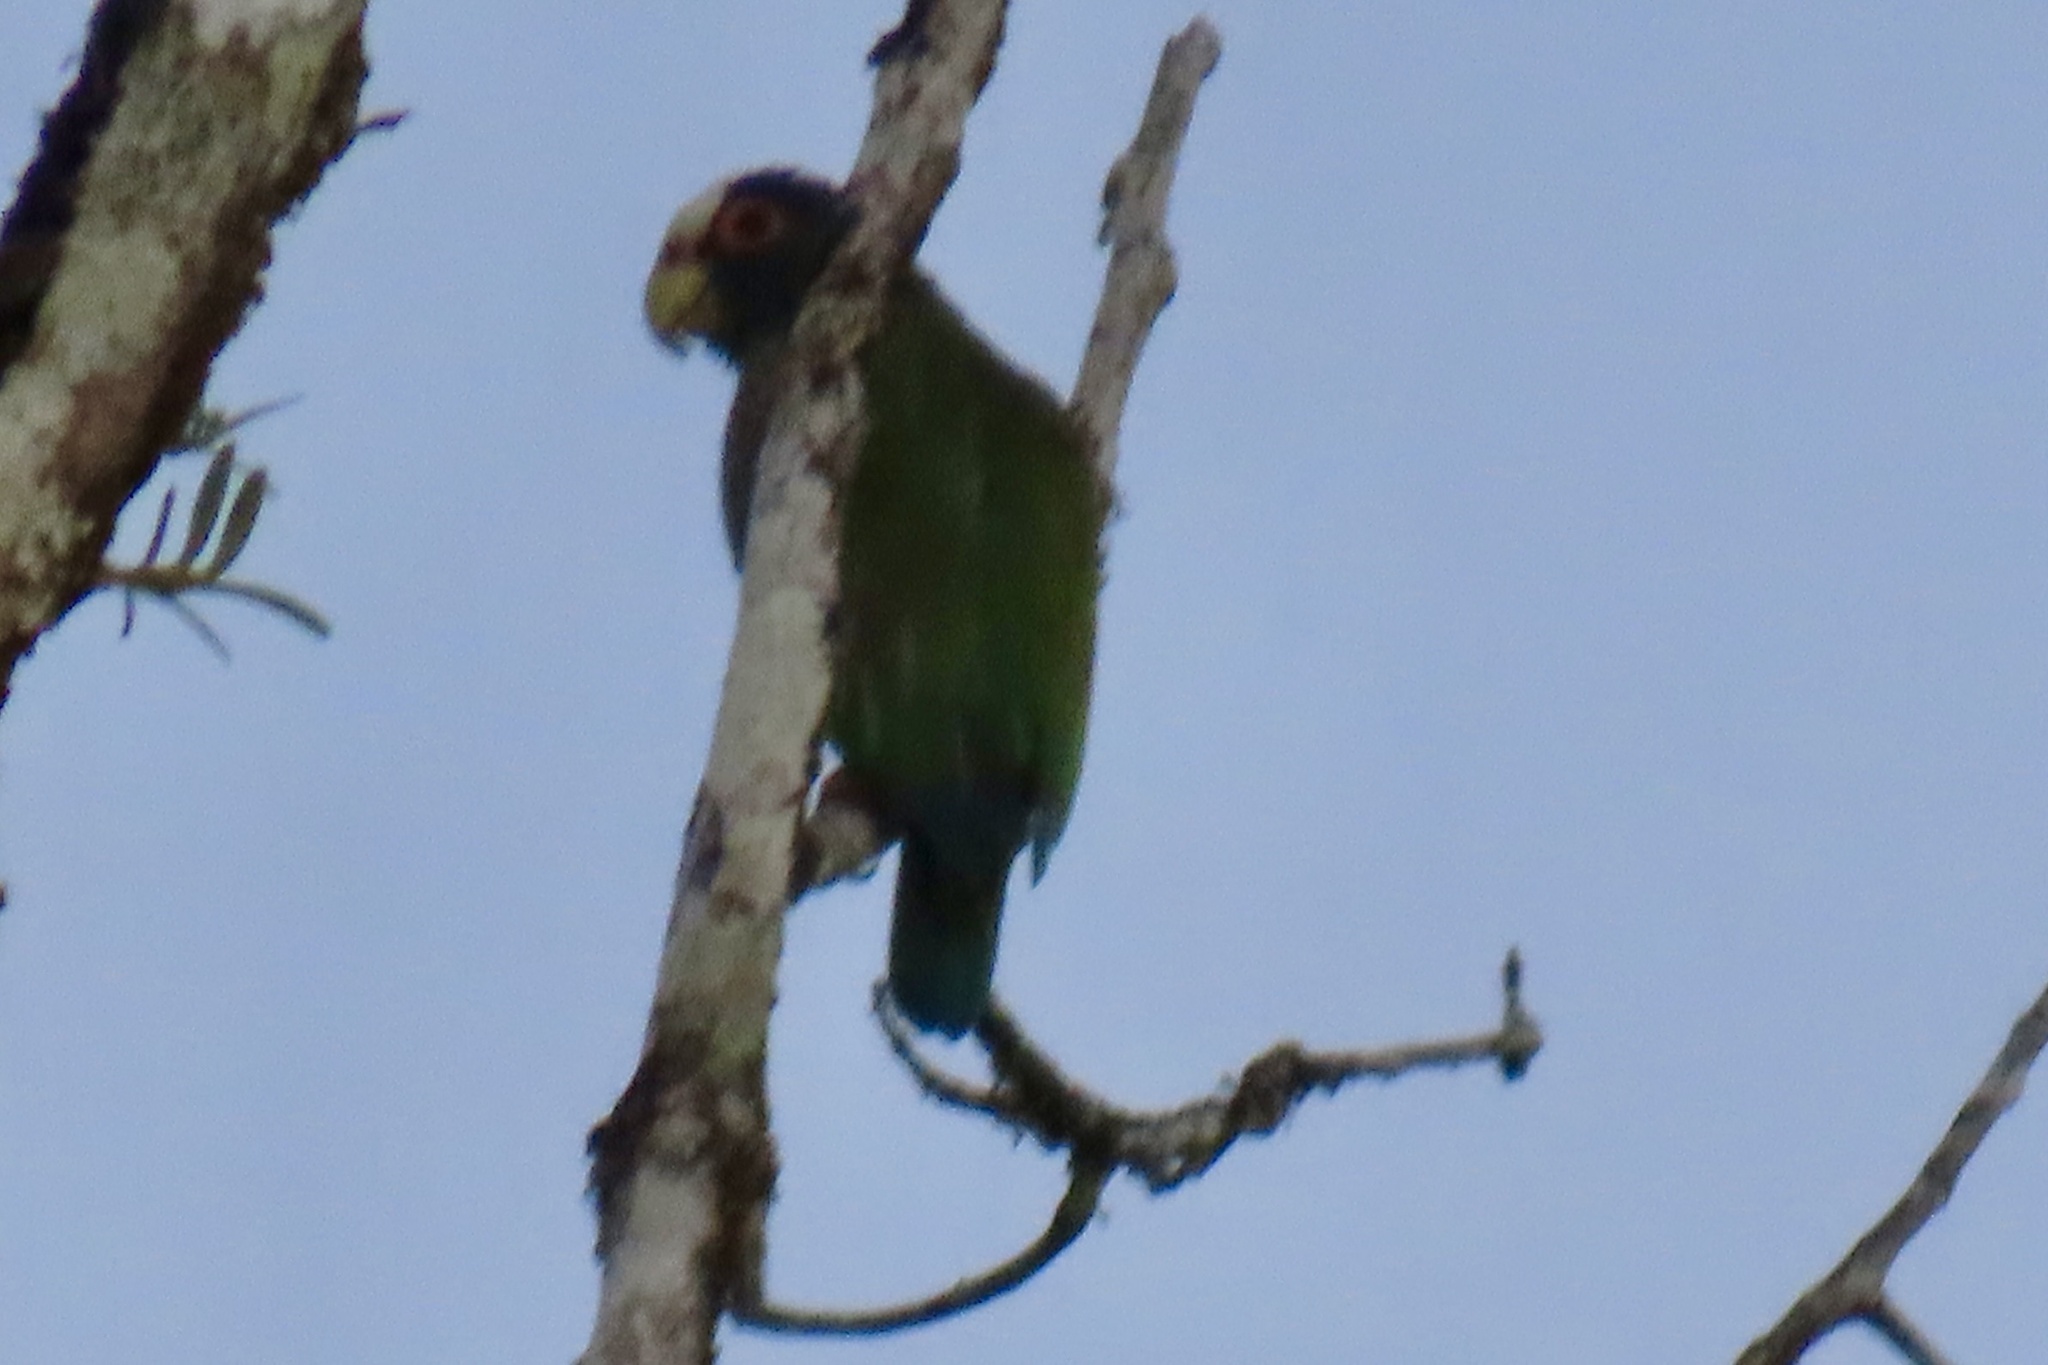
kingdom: Animalia
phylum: Chordata
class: Aves
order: Psittaciformes
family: Psittacidae
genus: Amazona
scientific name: Amazona albifrons
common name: White-fronted amazon
